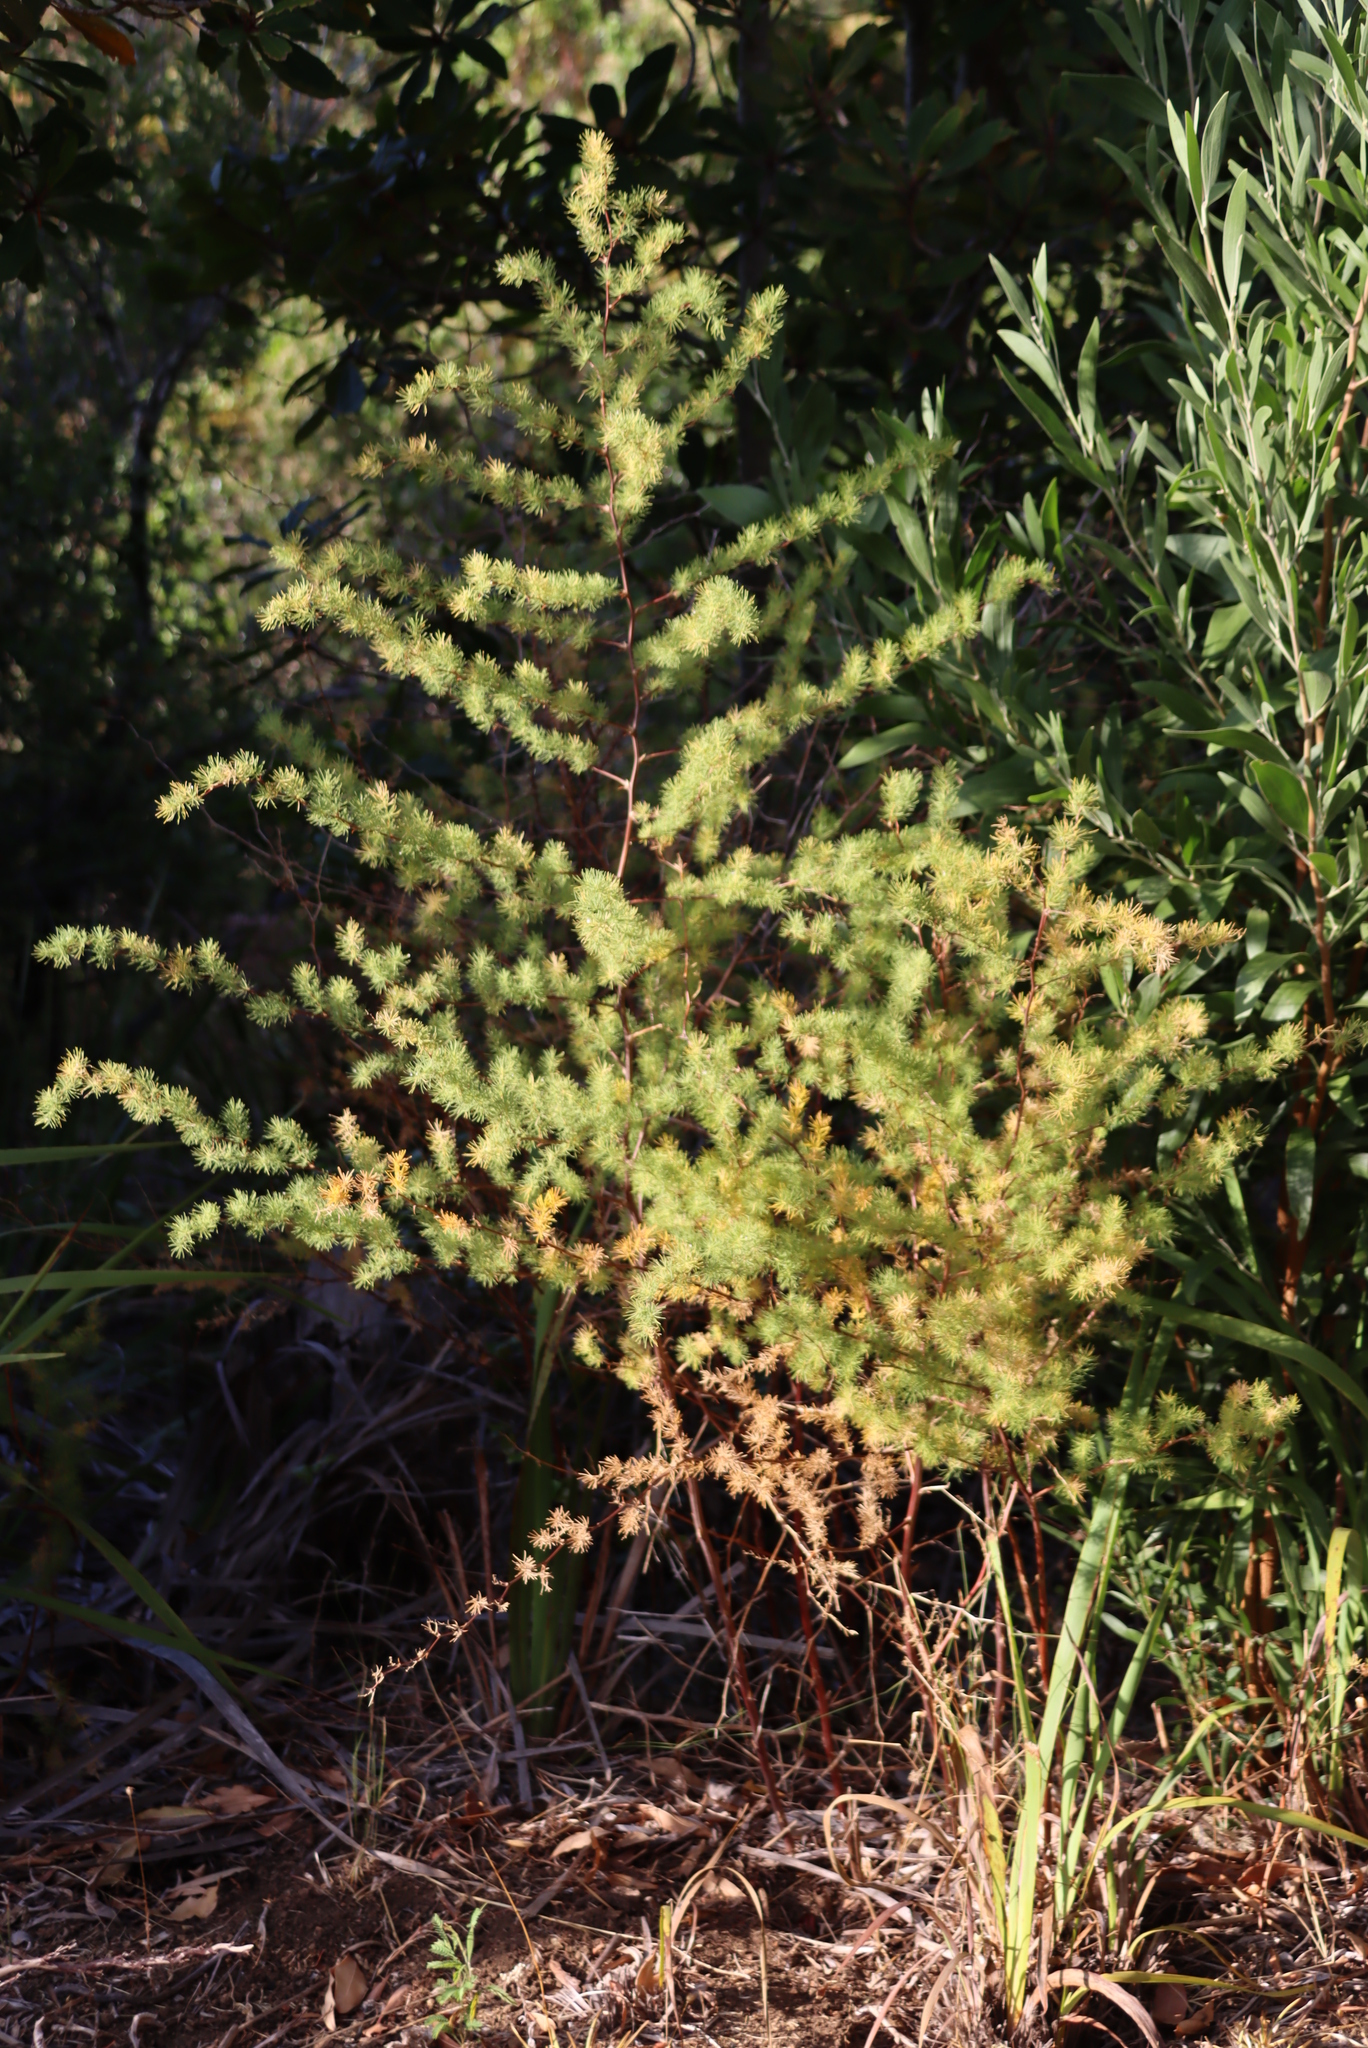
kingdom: Plantae
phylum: Tracheophyta
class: Liliopsida
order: Asparagales
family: Asparagaceae
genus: Asparagus
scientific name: Asparagus rubicundus
